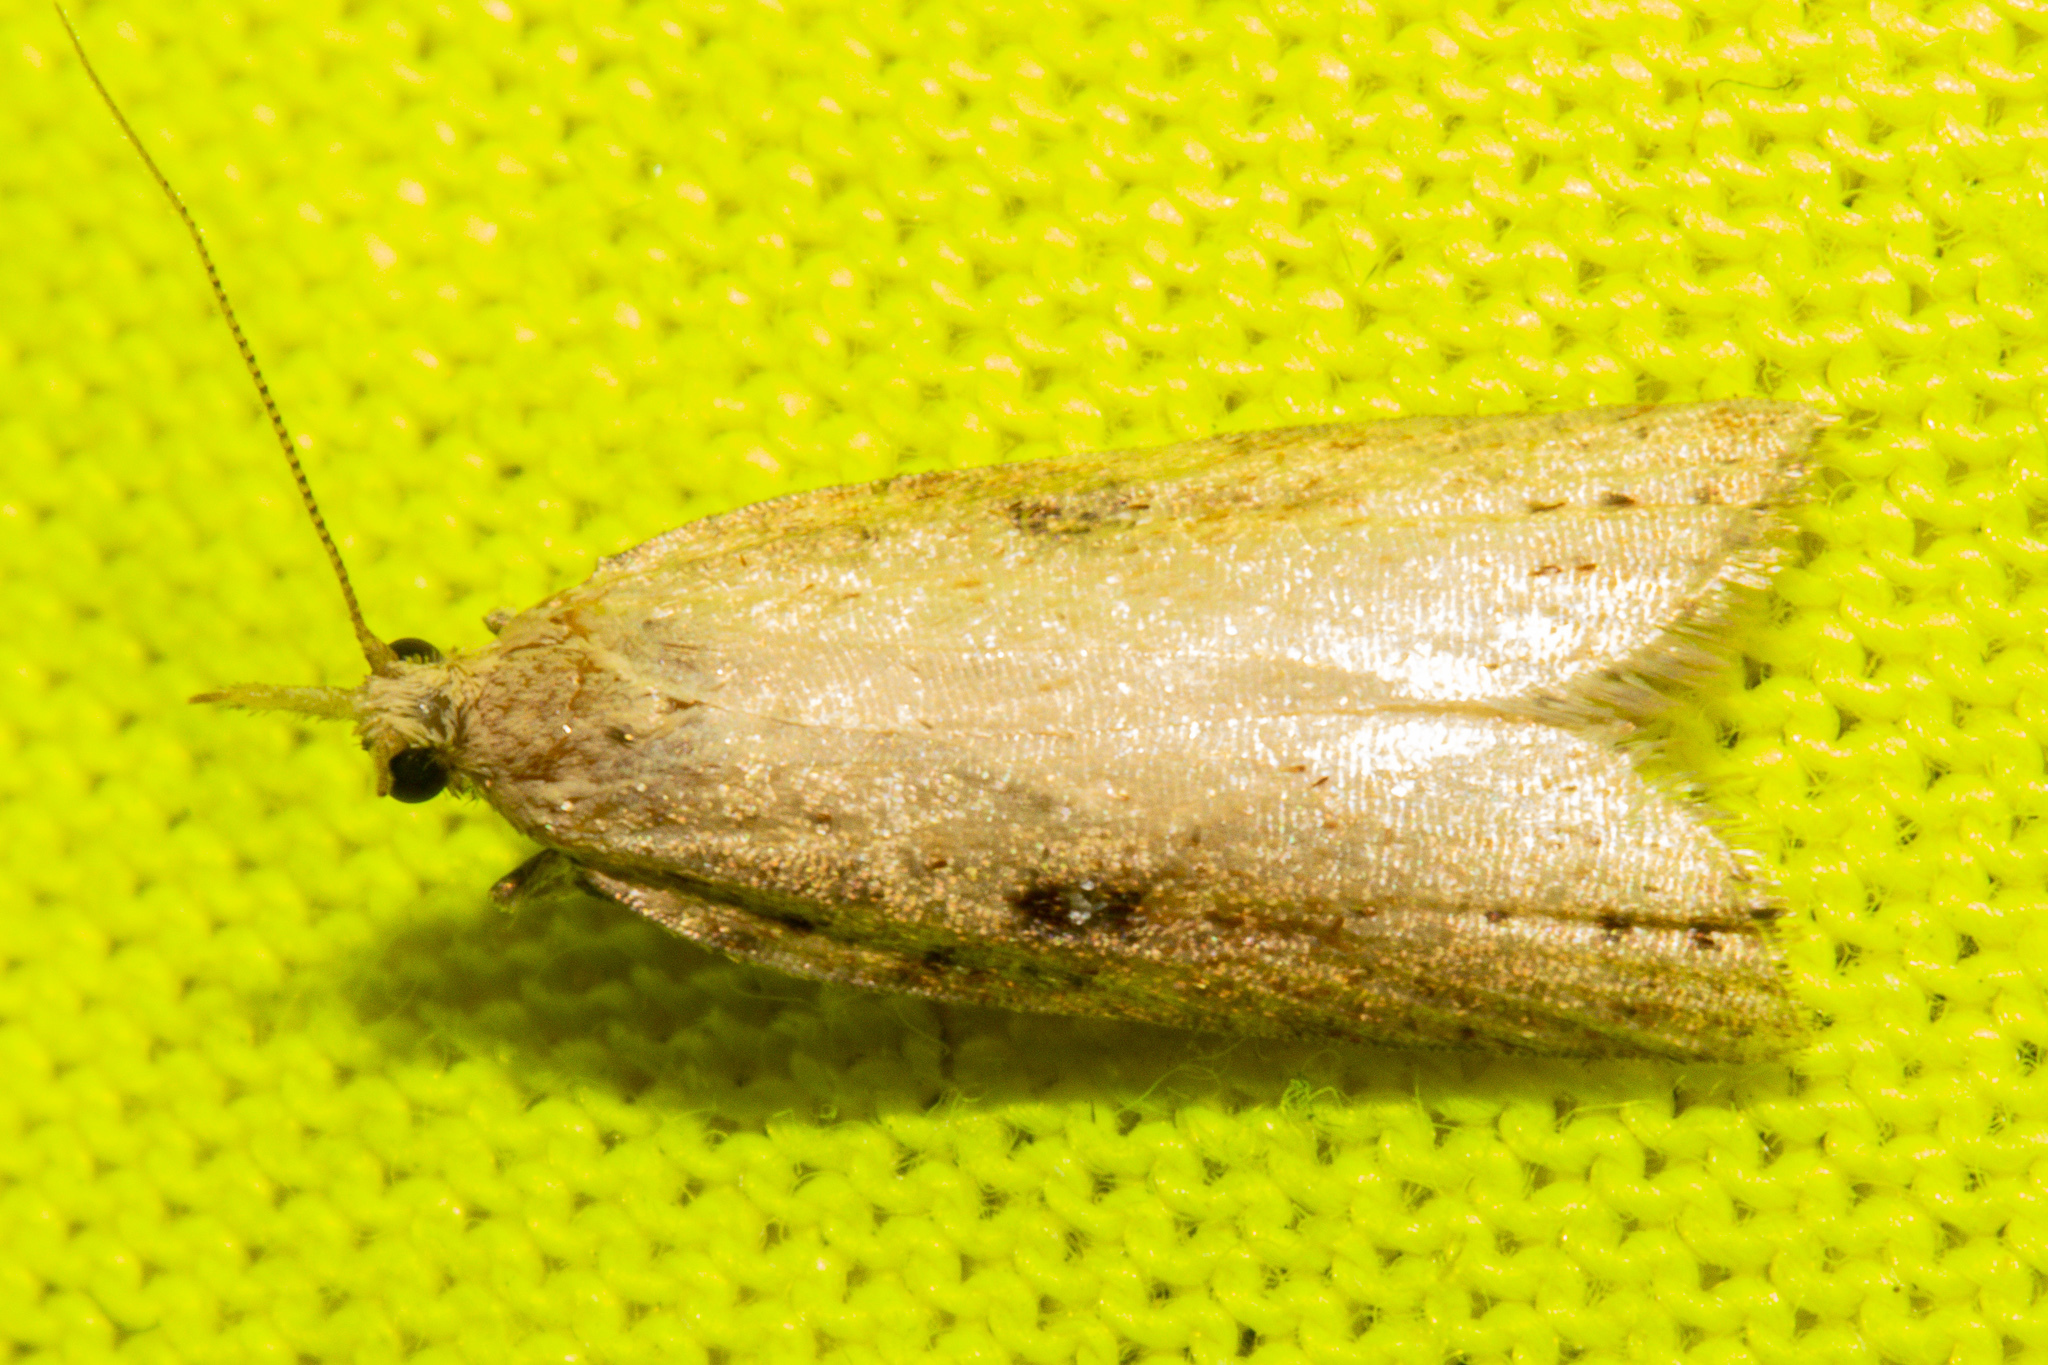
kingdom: Animalia
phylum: Arthropoda
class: Insecta
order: Lepidoptera
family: Tortricidae
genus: Apoctena
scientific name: Apoctena persecta
